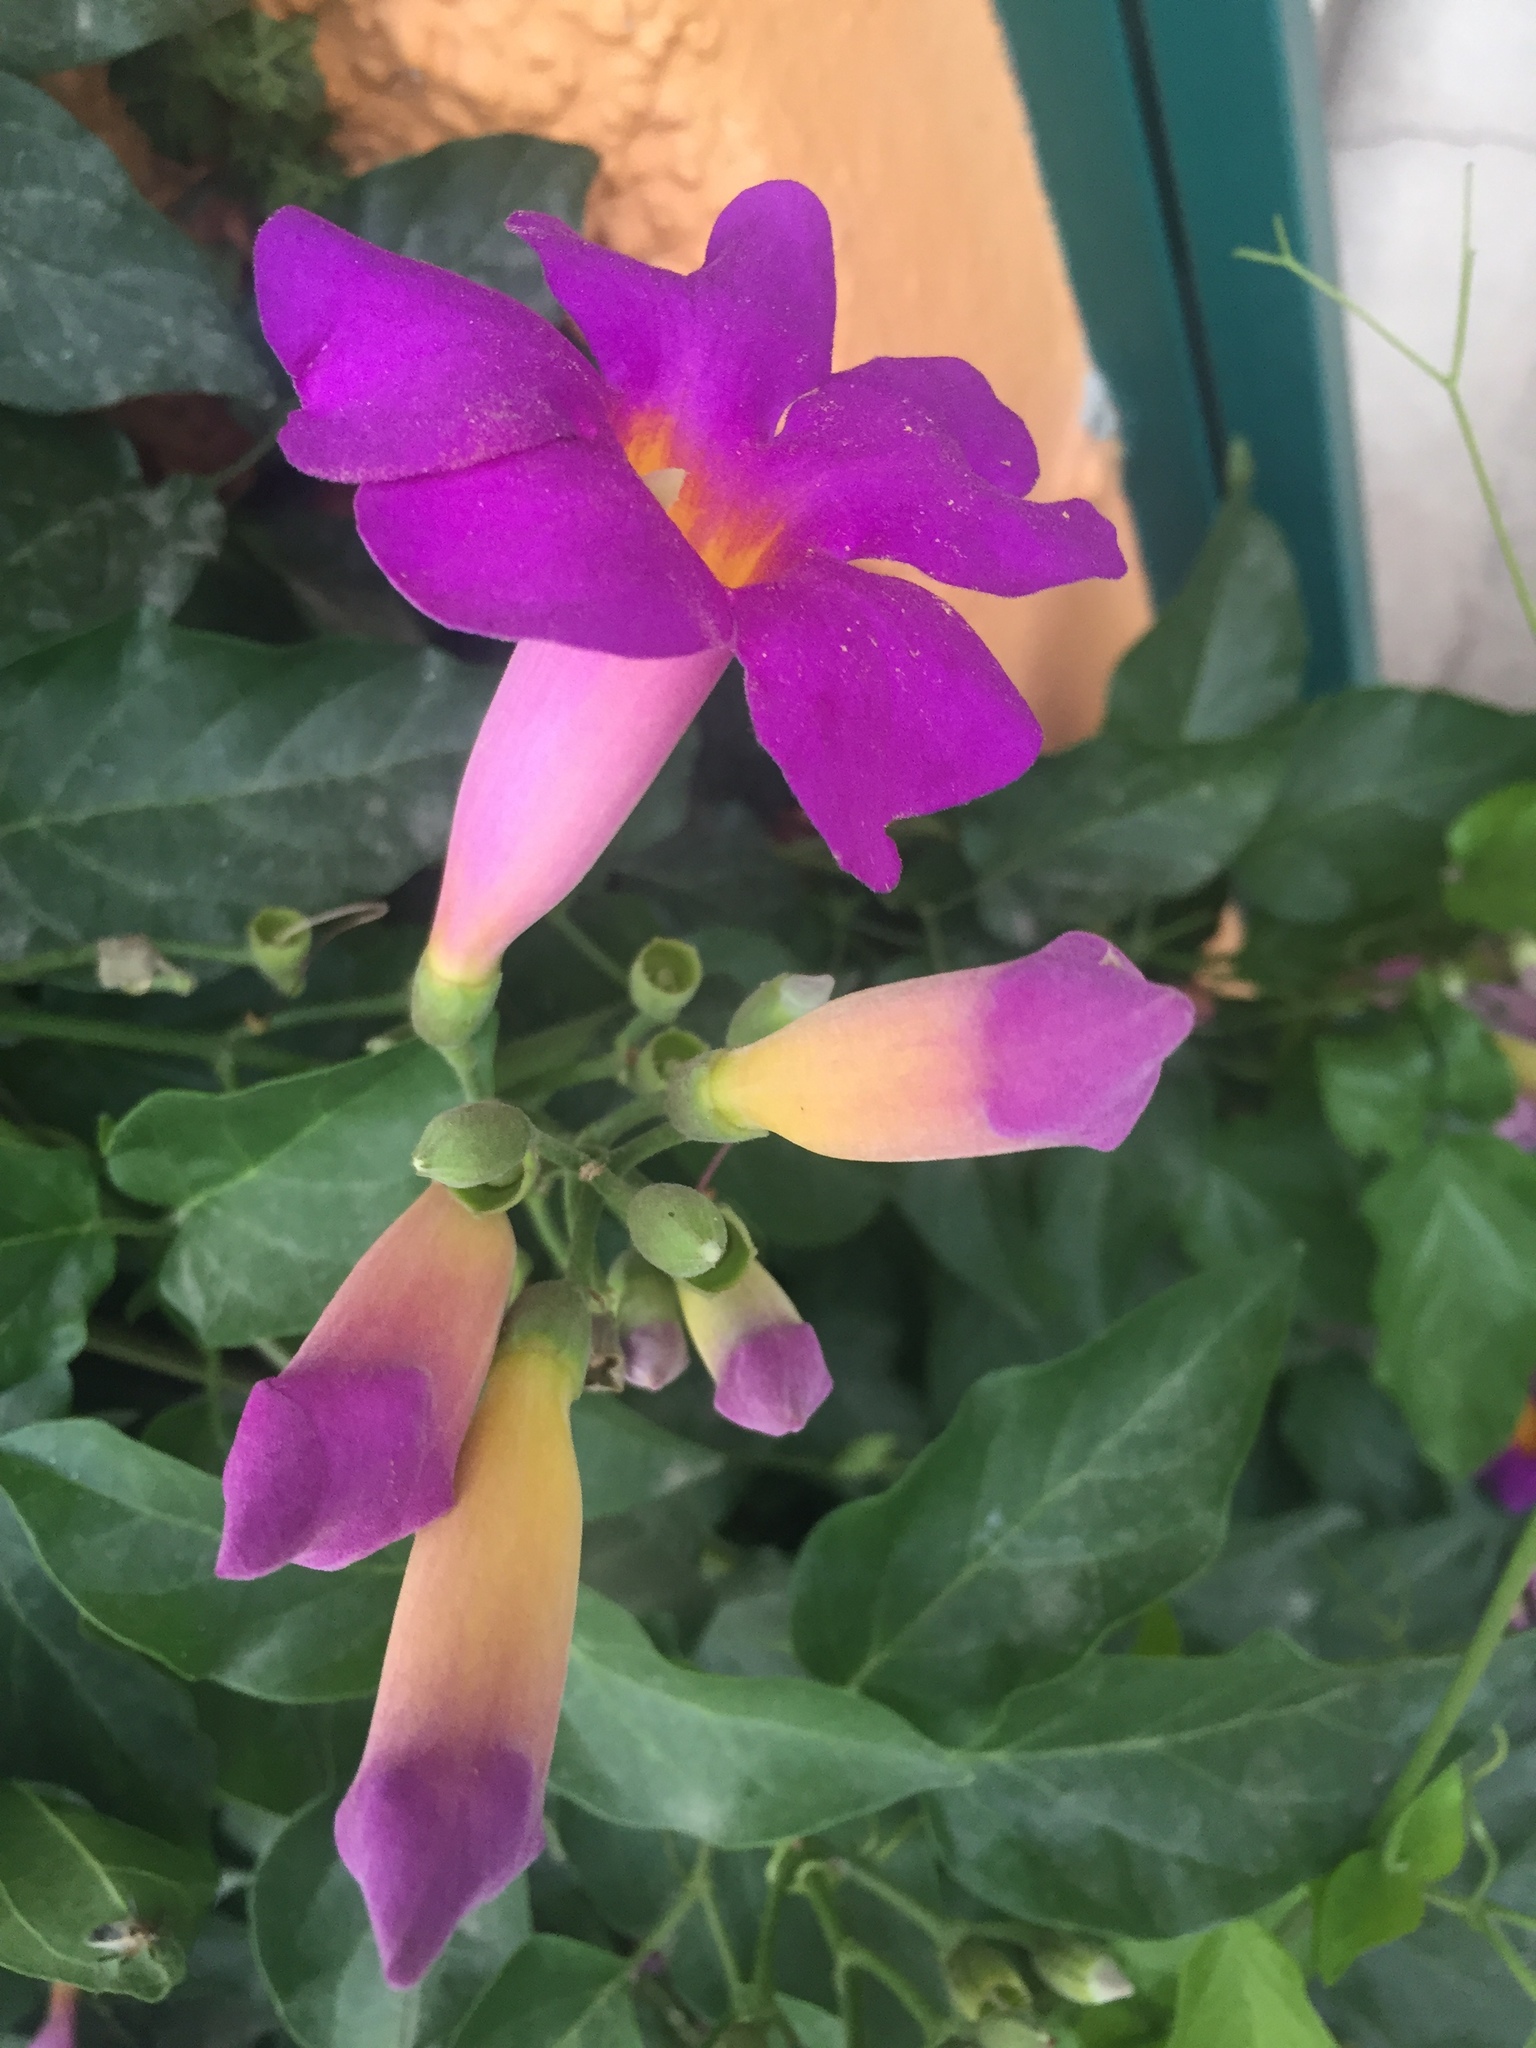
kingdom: Plantae
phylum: Tracheophyta
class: Magnoliopsida
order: Lamiales
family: Bignoniaceae
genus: Amphilophium
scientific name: Amphilophium buccinatorium
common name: Mexican blood-flower
